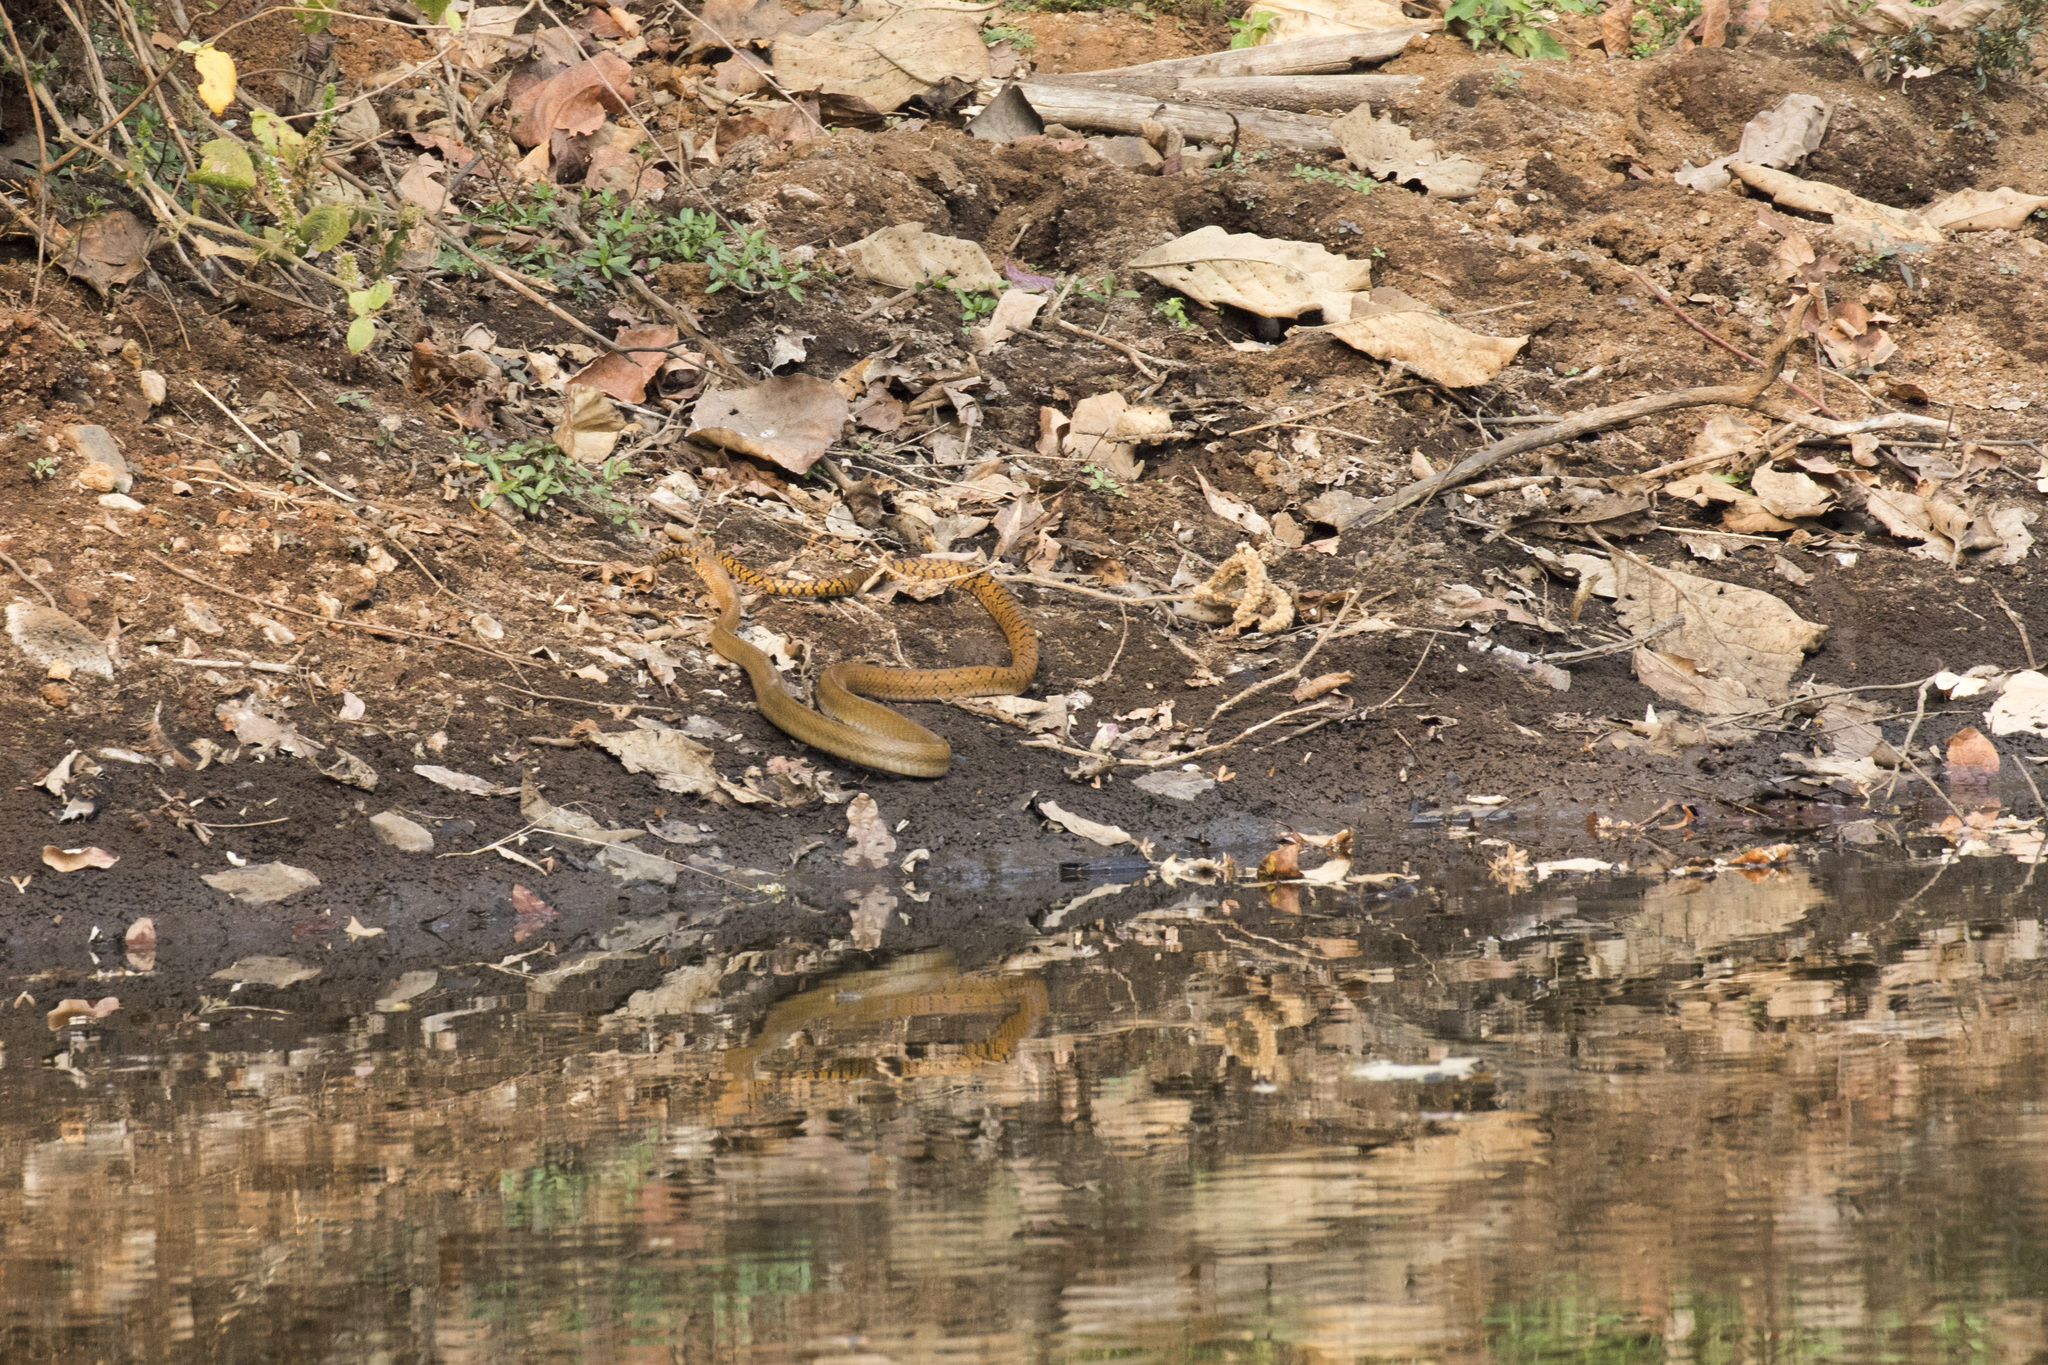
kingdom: Animalia
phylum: Chordata
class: Squamata
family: Colubridae
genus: Ptyas
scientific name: Ptyas mucosa
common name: Oriental ratsnake
